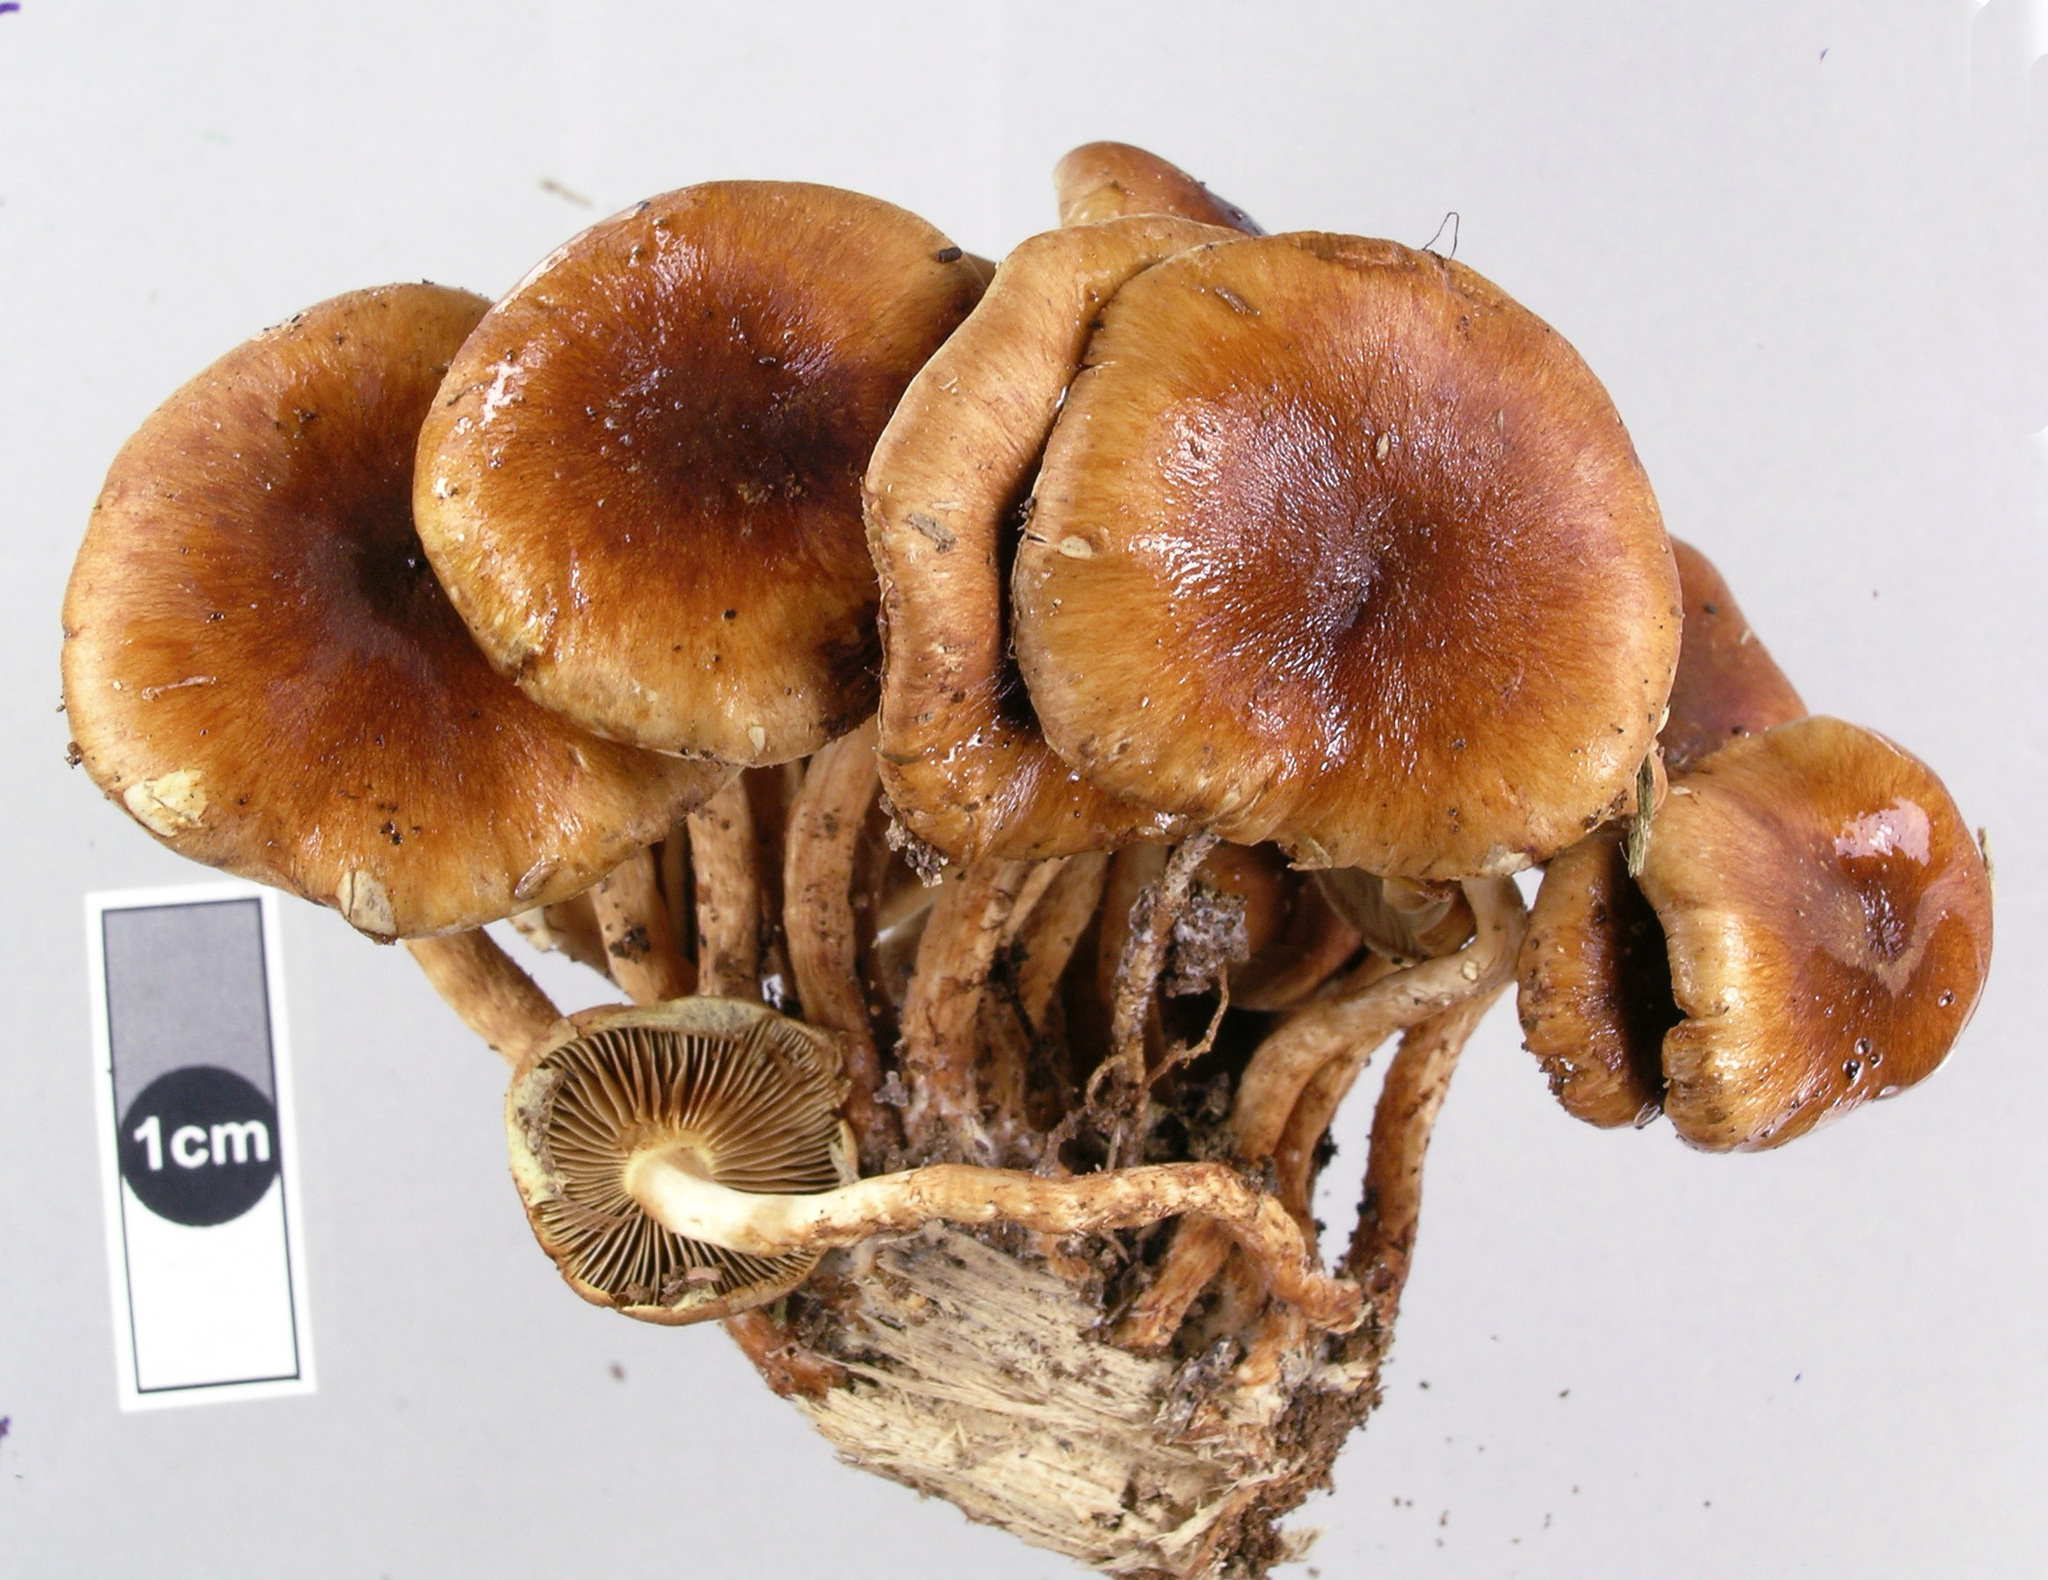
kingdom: Fungi
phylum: Basidiomycota
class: Agaricomycetes
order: Agaricales
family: Strophariaceae
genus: Pholiota
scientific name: Pholiota multicingulata
